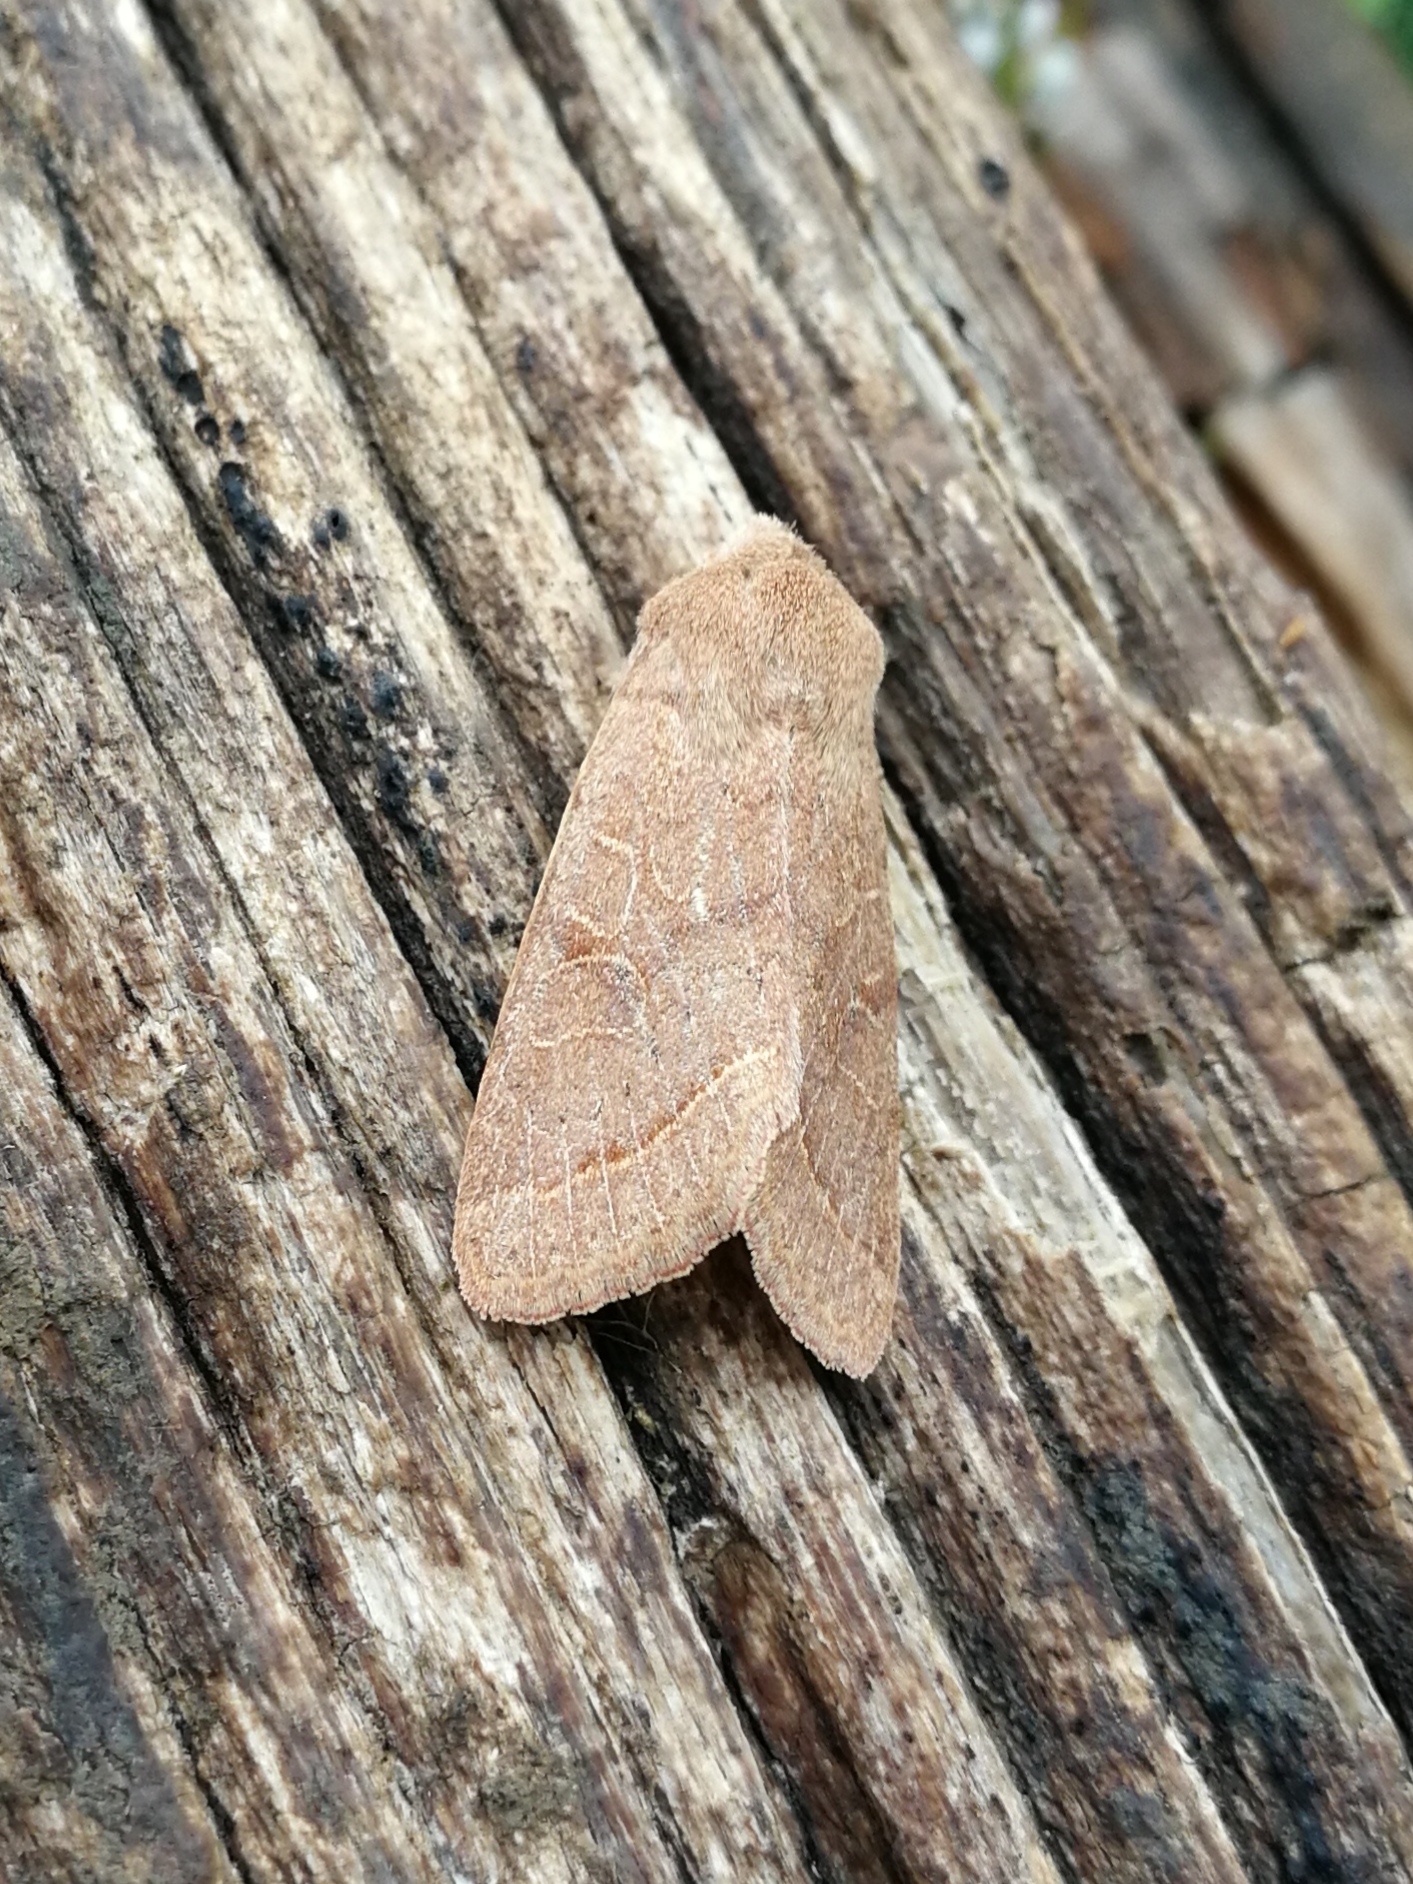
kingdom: Animalia
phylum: Arthropoda
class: Insecta
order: Lepidoptera
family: Noctuidae
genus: Orthosia
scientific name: Orthosia cerasi
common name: Common quaker
